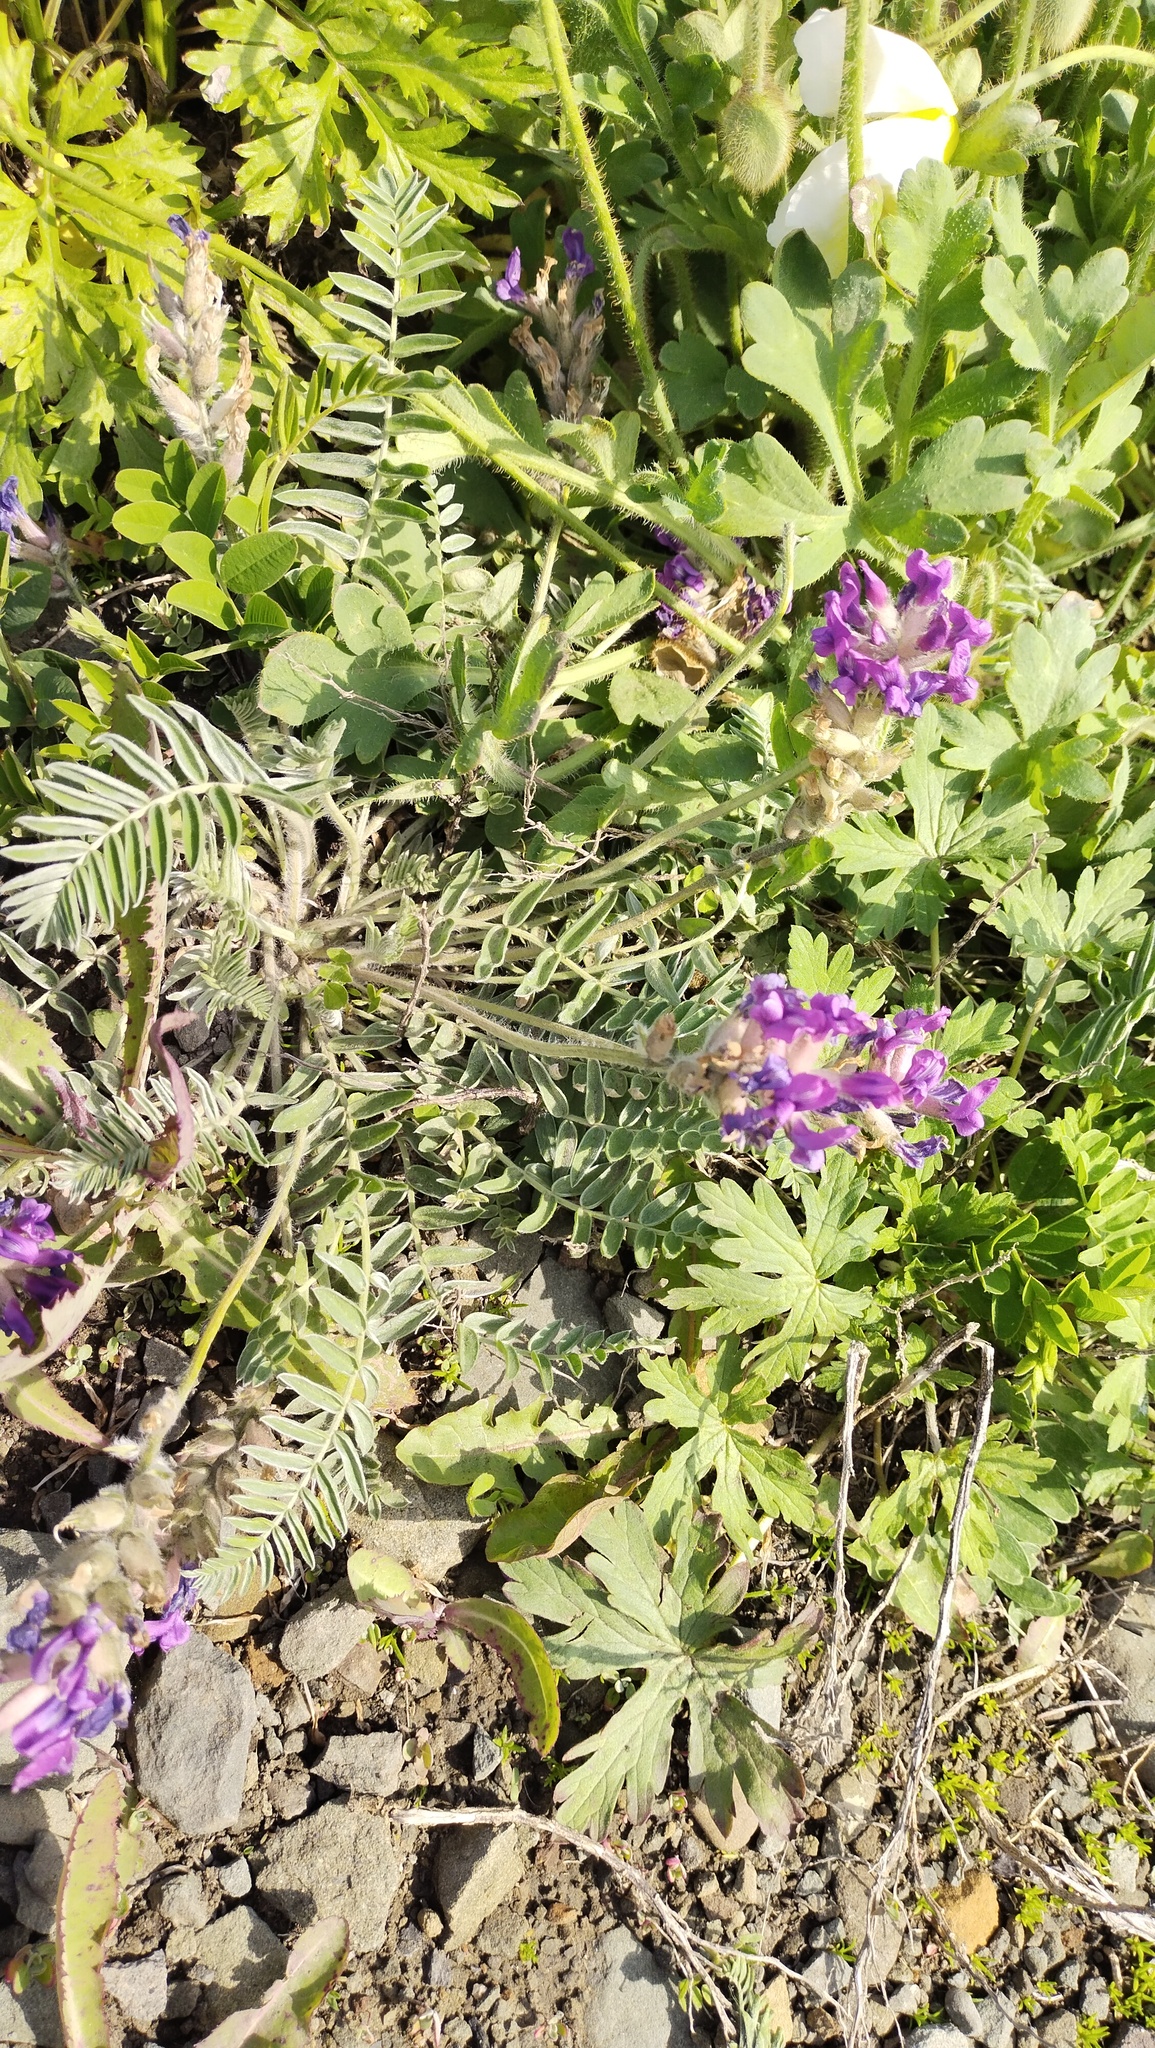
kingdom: Plantae
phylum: Tracheophyta
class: Magnoliopsida
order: Fabales
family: Fabaceae
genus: Oxytropis
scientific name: Oxytropis ruthenica
